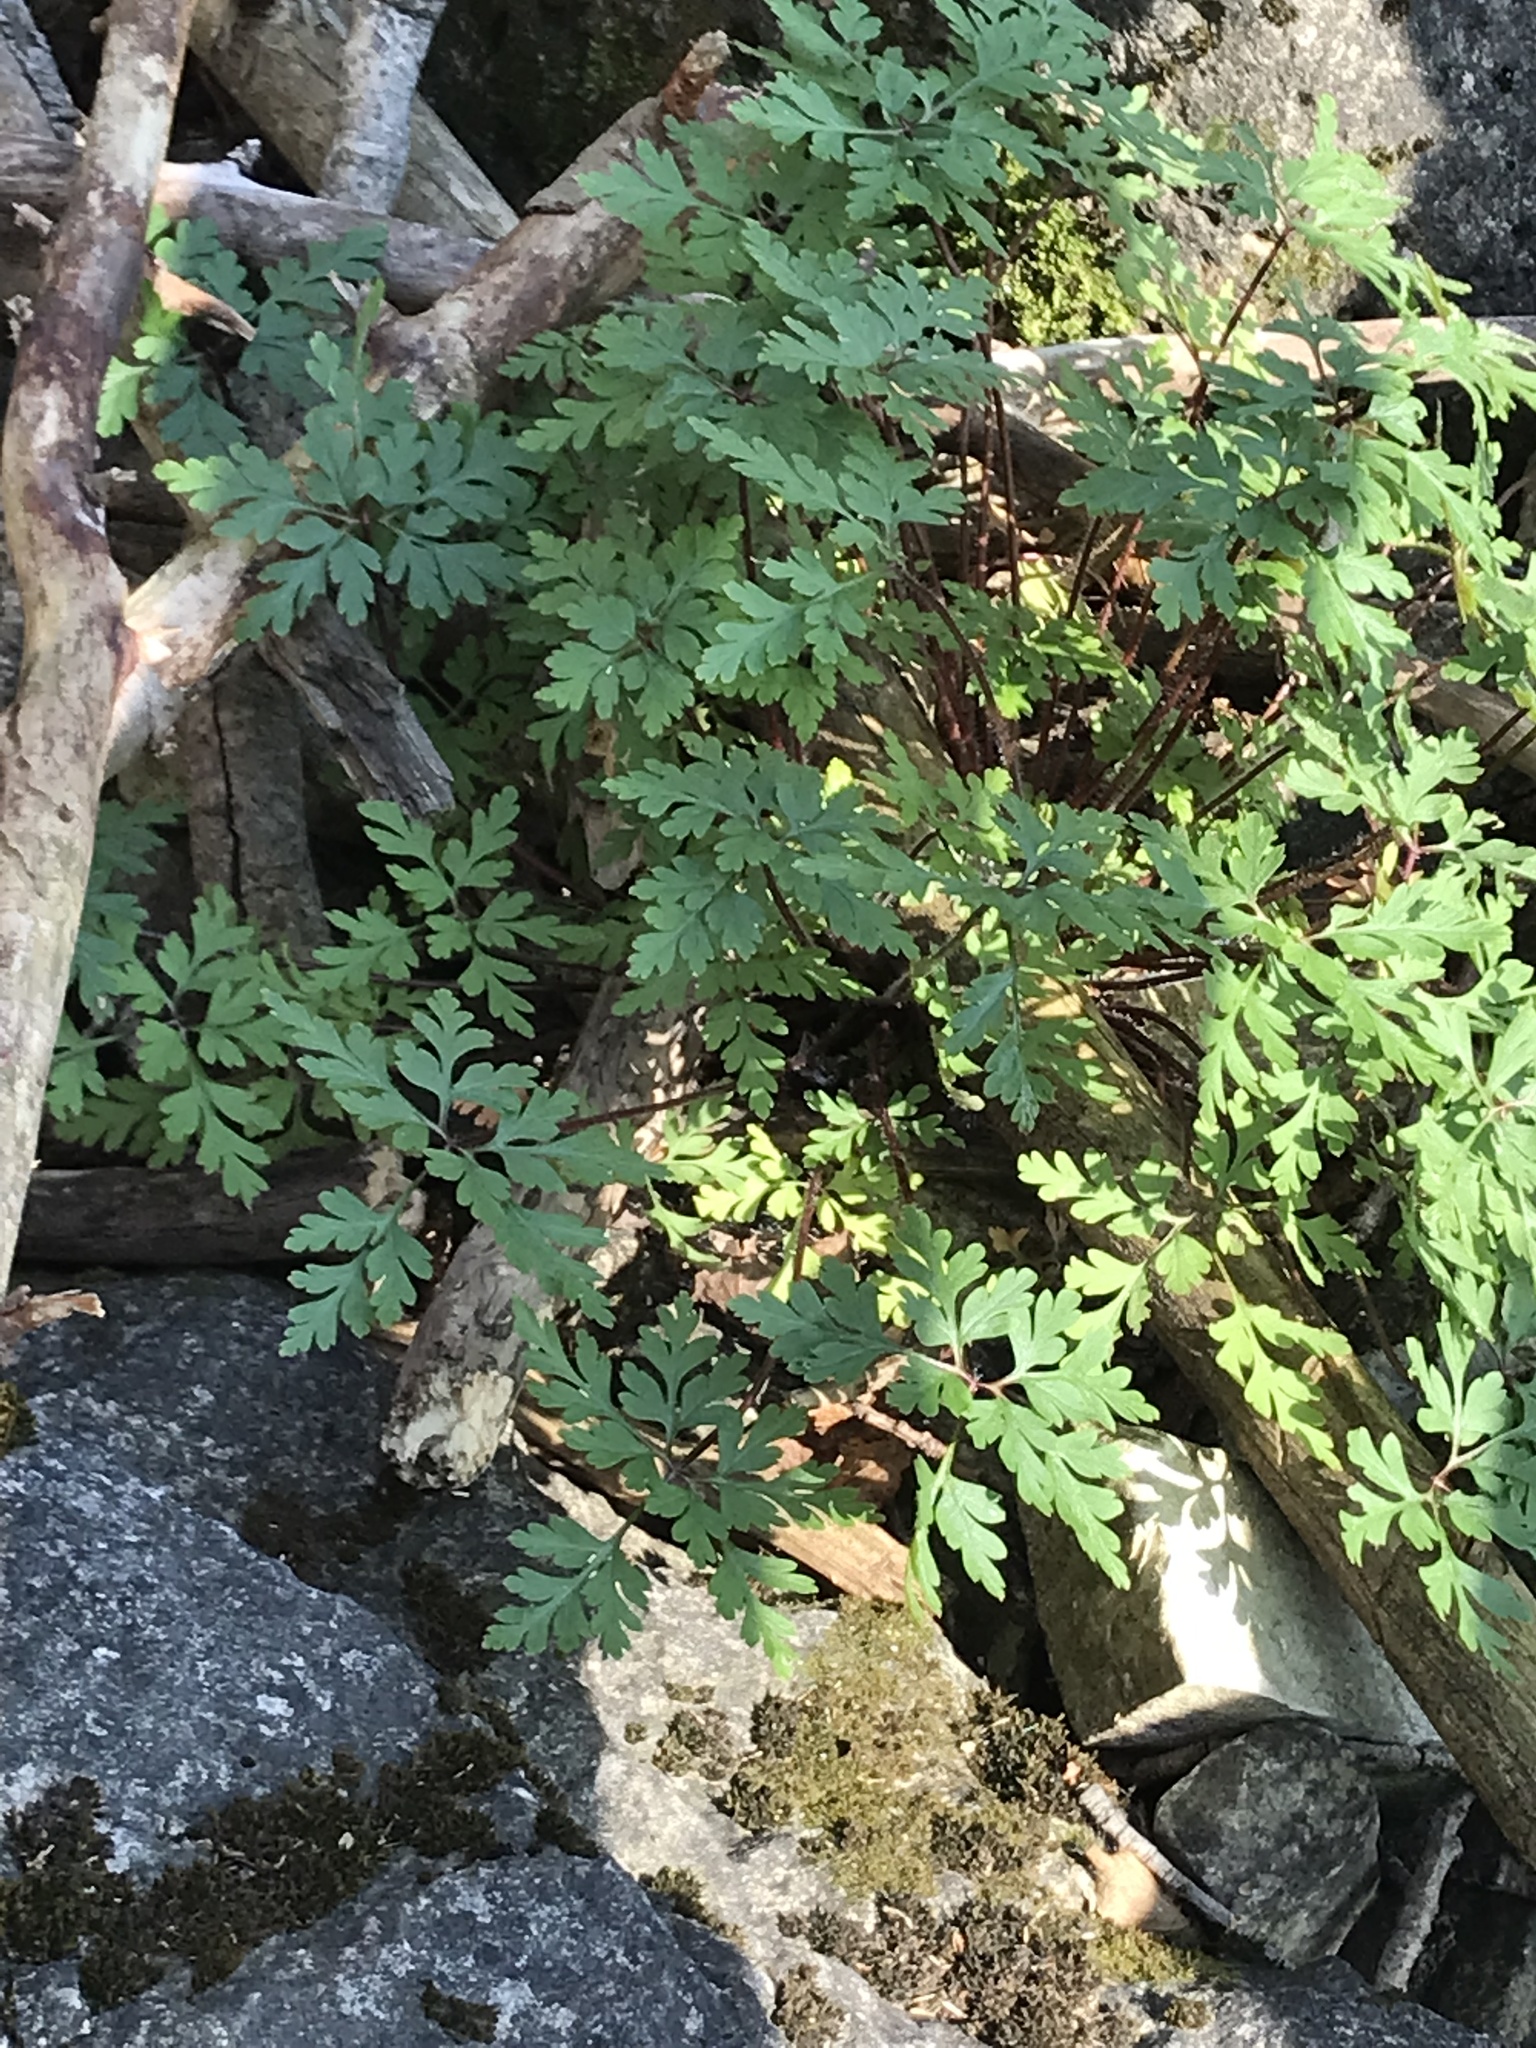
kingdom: Plantae
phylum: Tracheophyta
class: Magnoliopsida
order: Geraniales
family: Geraniaceae
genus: Geranium
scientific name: Geranium robertianum
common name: Herb-robert
